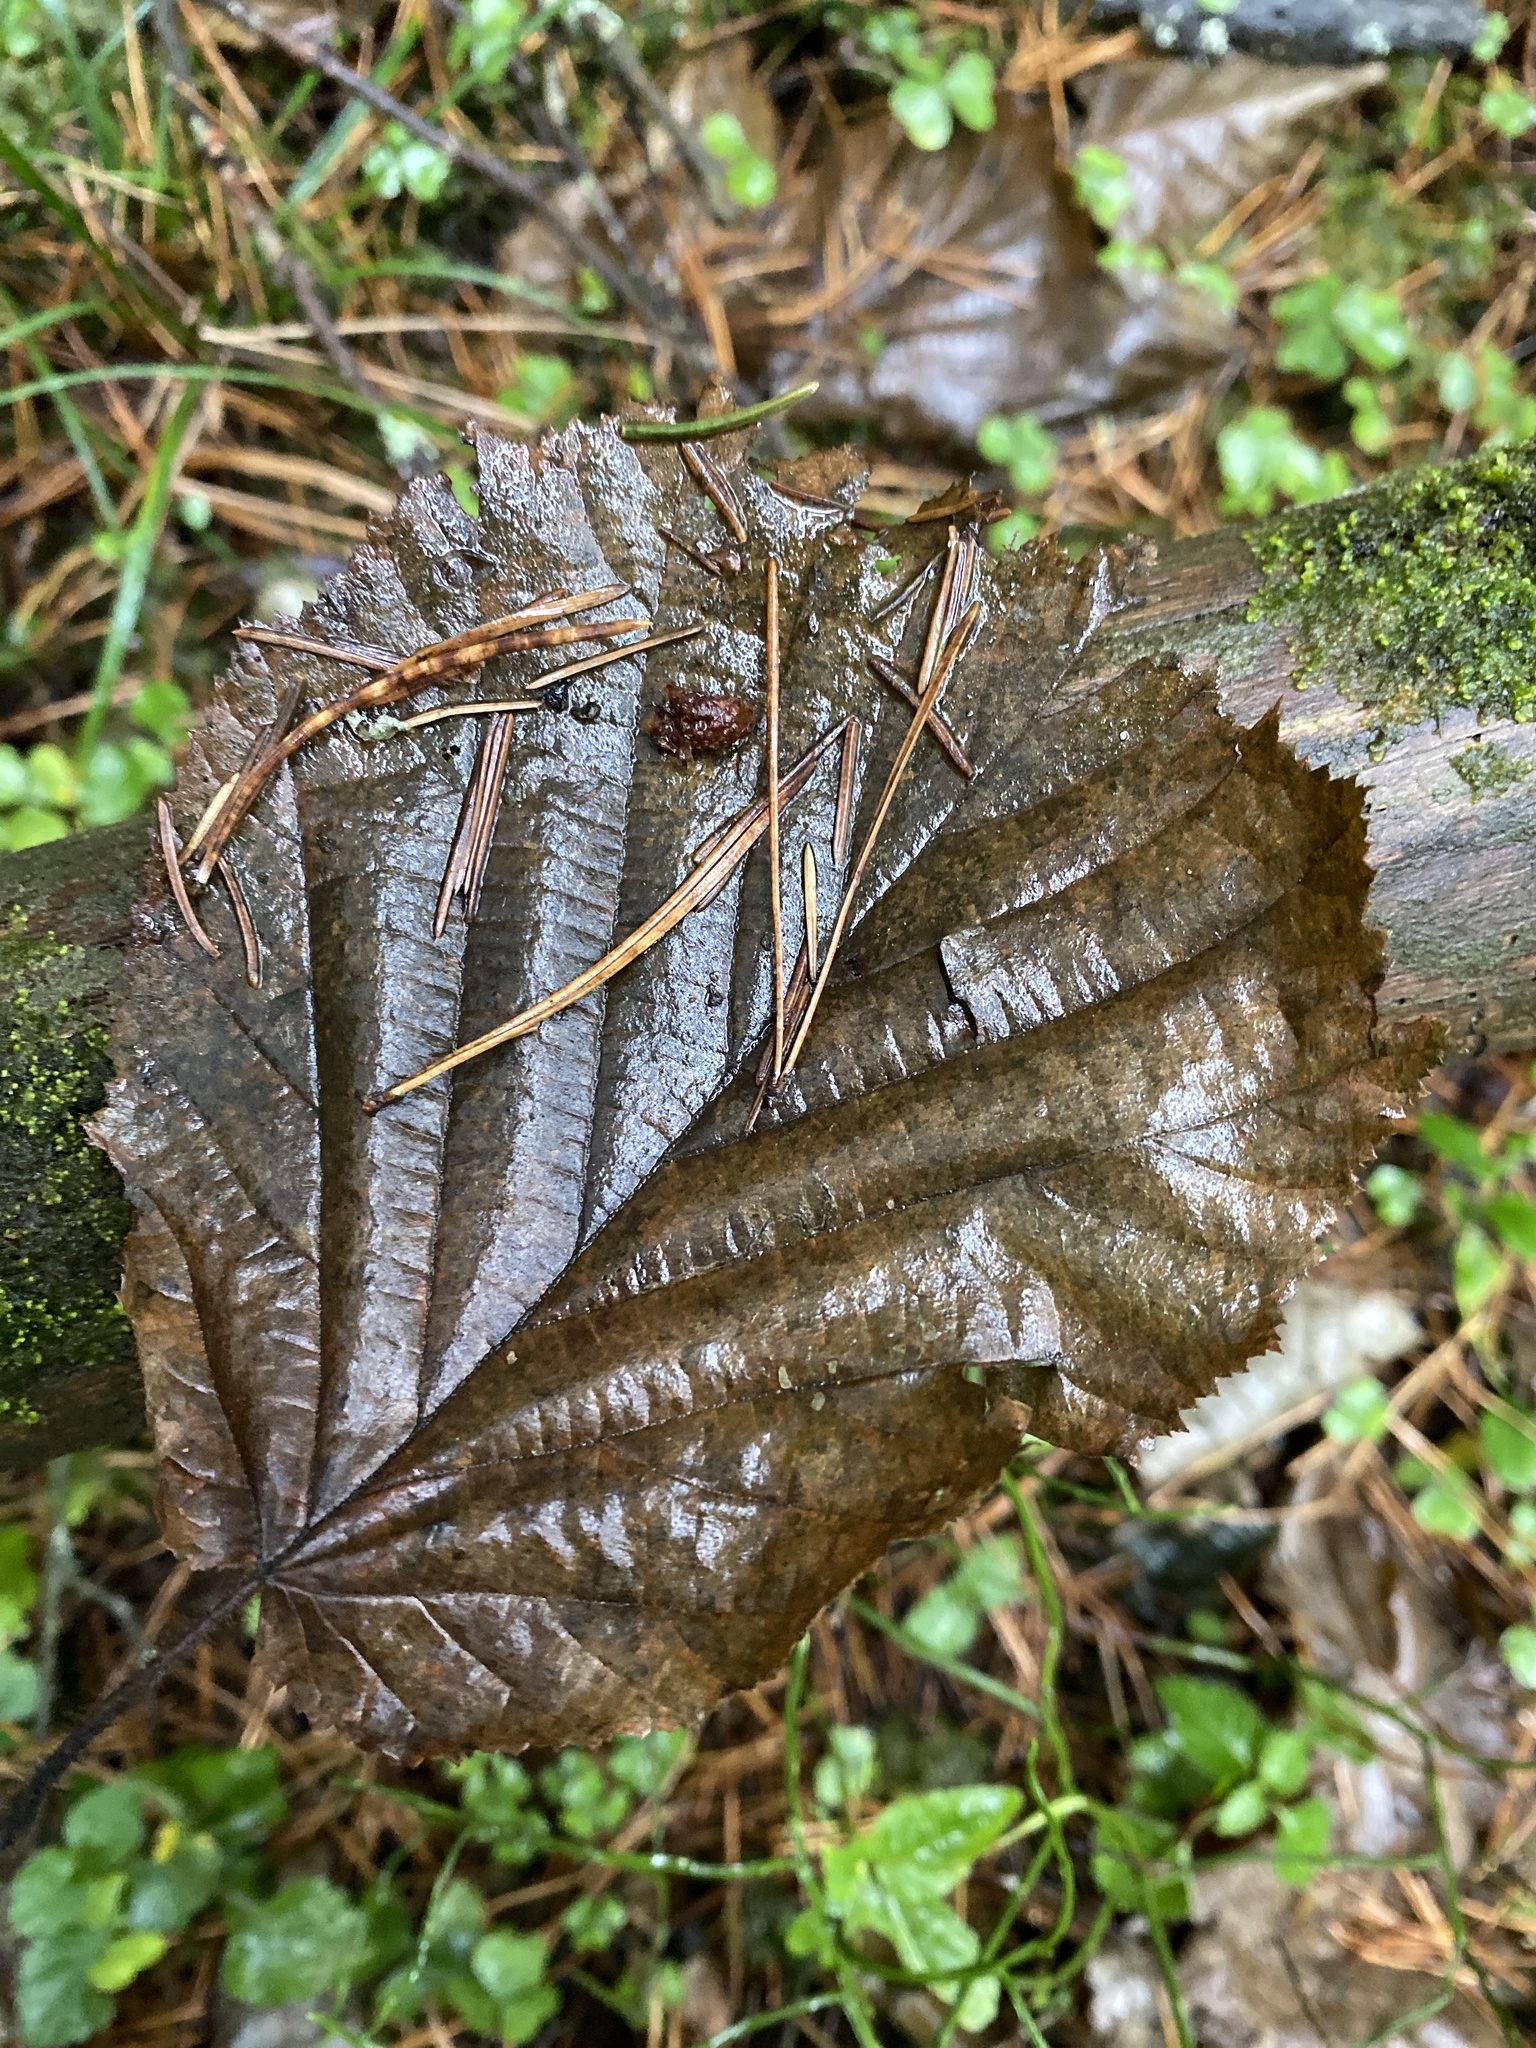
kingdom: Plantae
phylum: Tracheophyta
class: Magnoliopsida
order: Fagales
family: Betulaceae
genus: Corylus
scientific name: Corylus avellana
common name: European hazel
